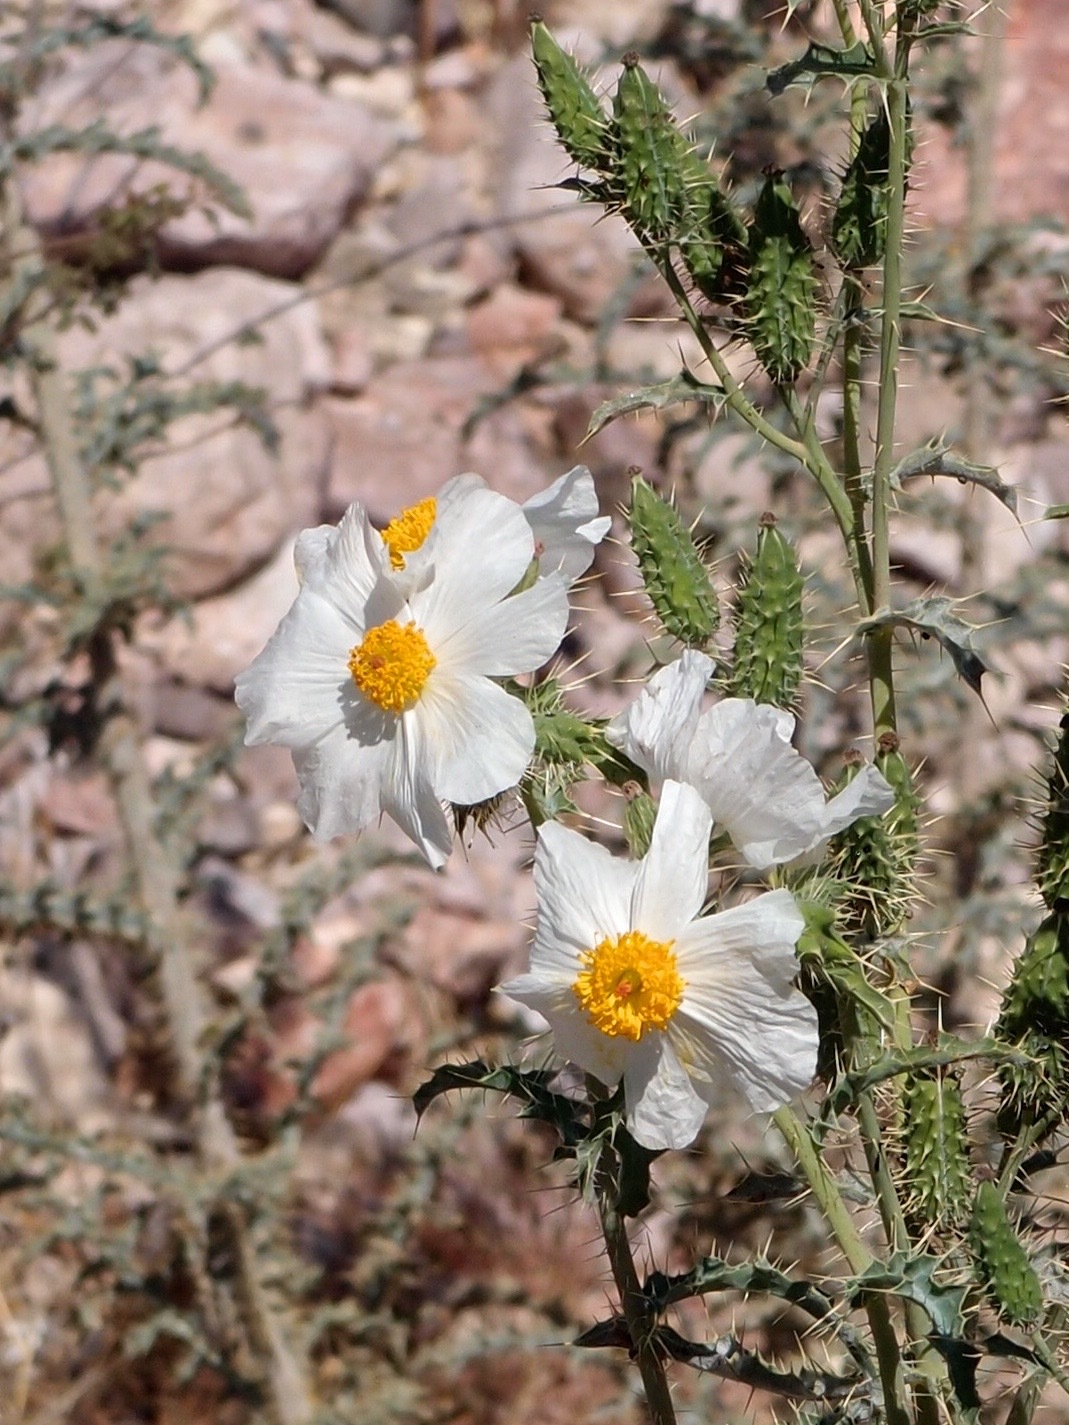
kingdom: Plantae
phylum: Tracheophyta
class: Magnoliopsida
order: Ranunculales
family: Papaveraceae
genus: Argemone
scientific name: Argemone gracilenta
